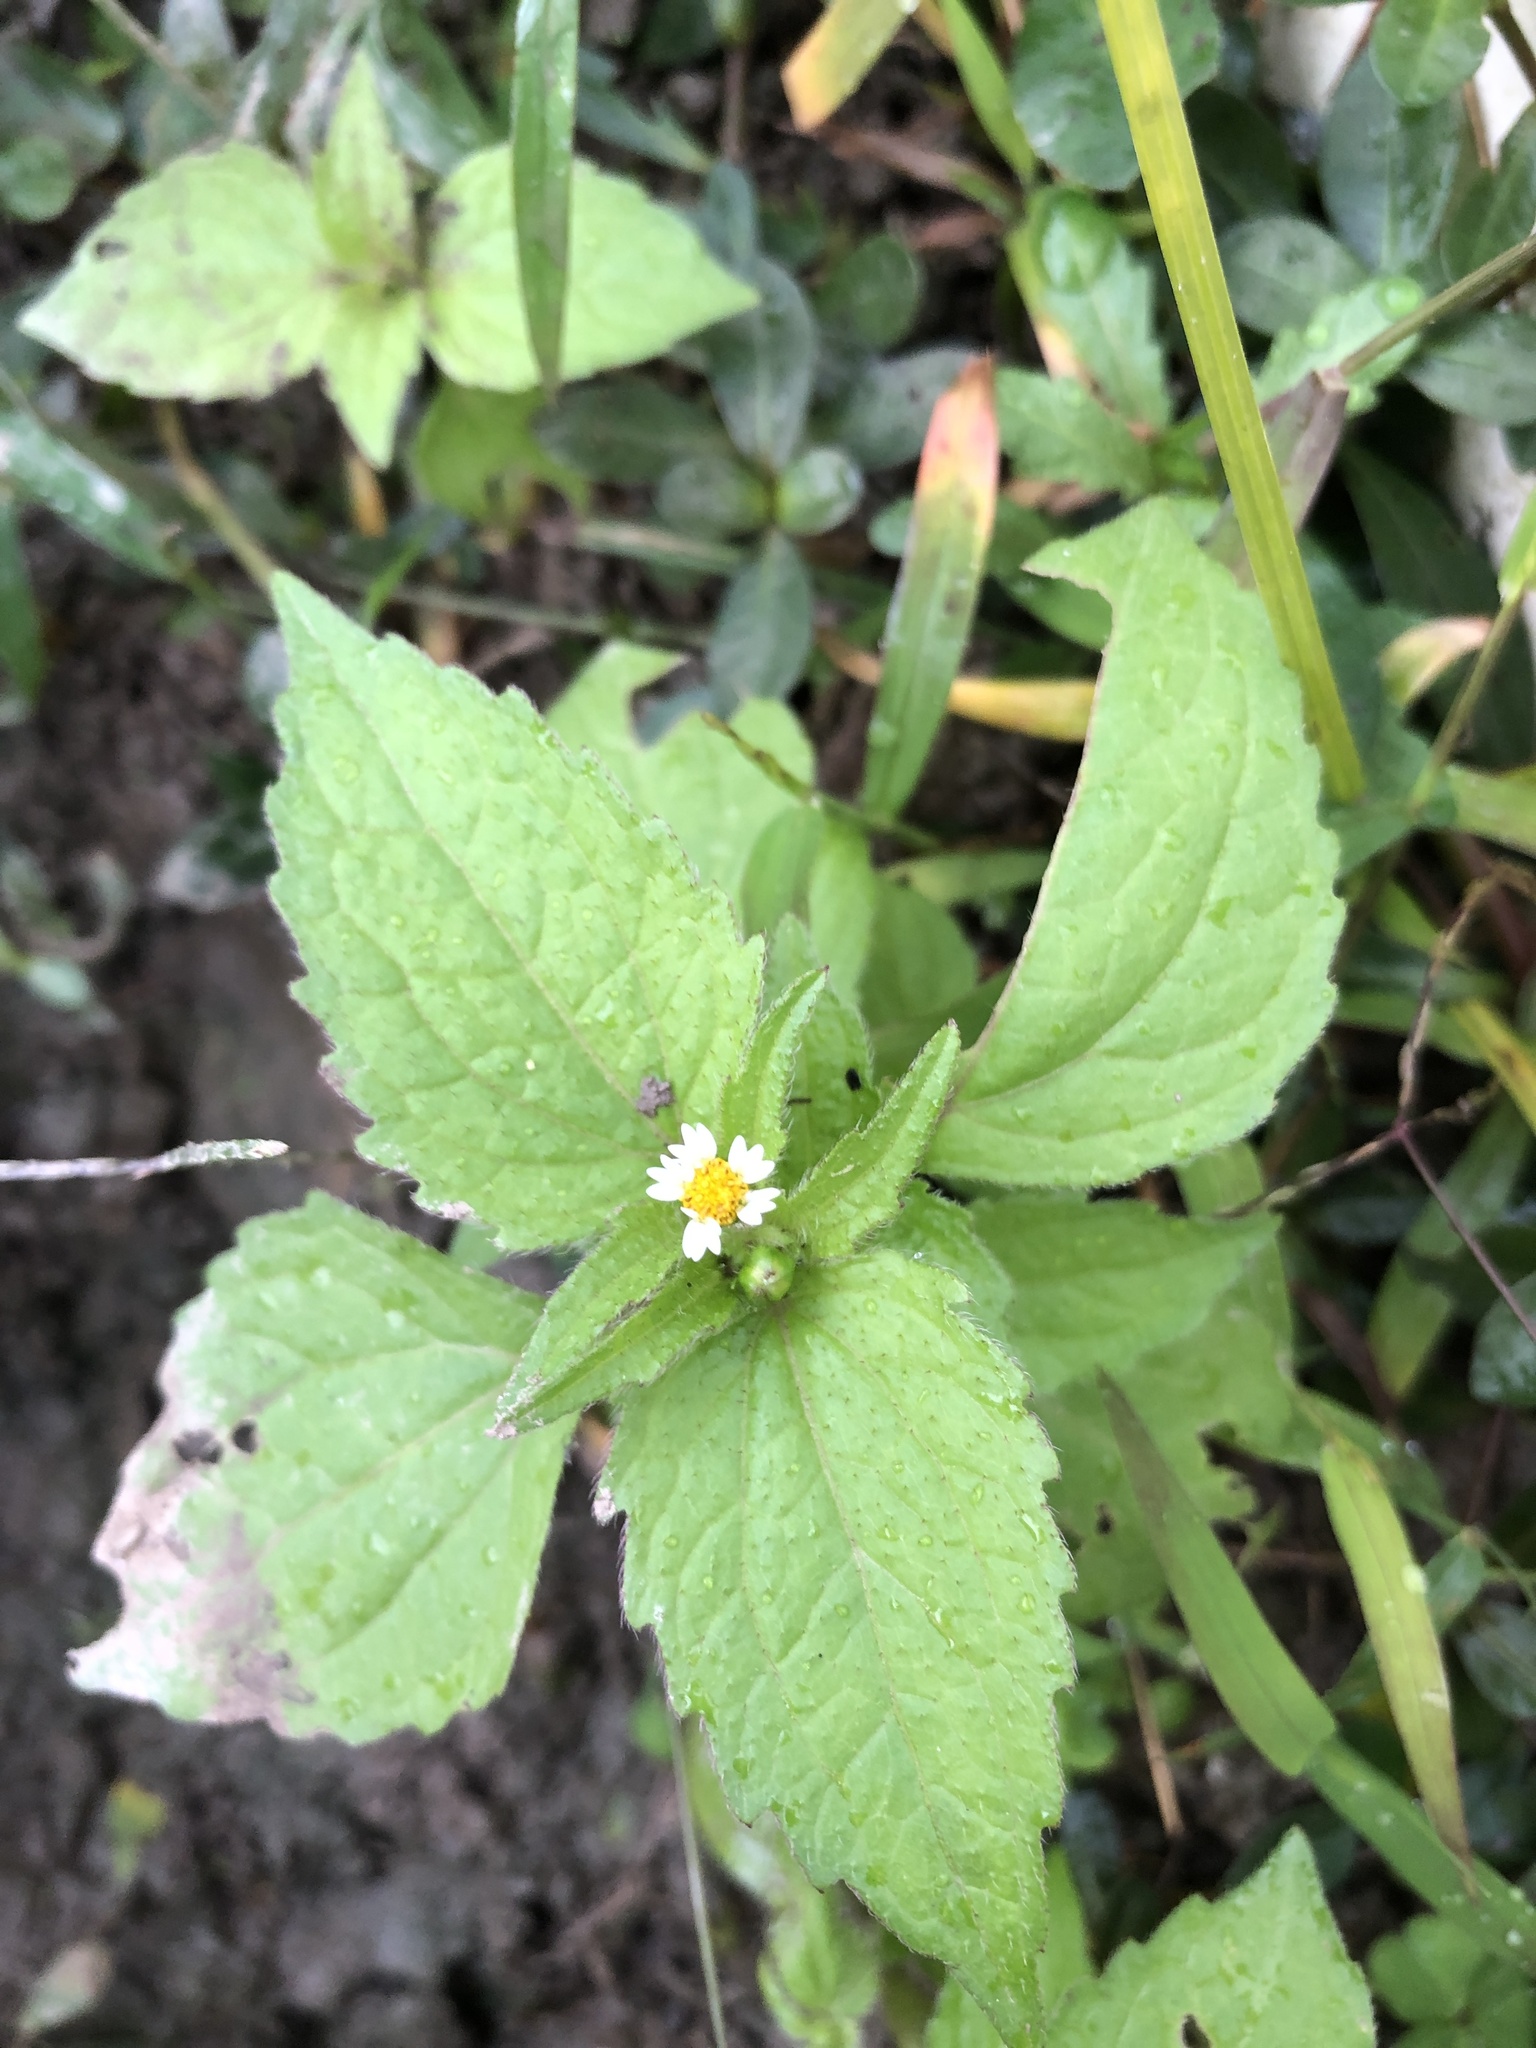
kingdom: Plantae
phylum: Tracheophyta
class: Magnoliopsida
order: Asterales
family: Asteraceae
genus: Galinsoga
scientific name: Galinsoga quadriradiata
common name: Shaggy soldier
